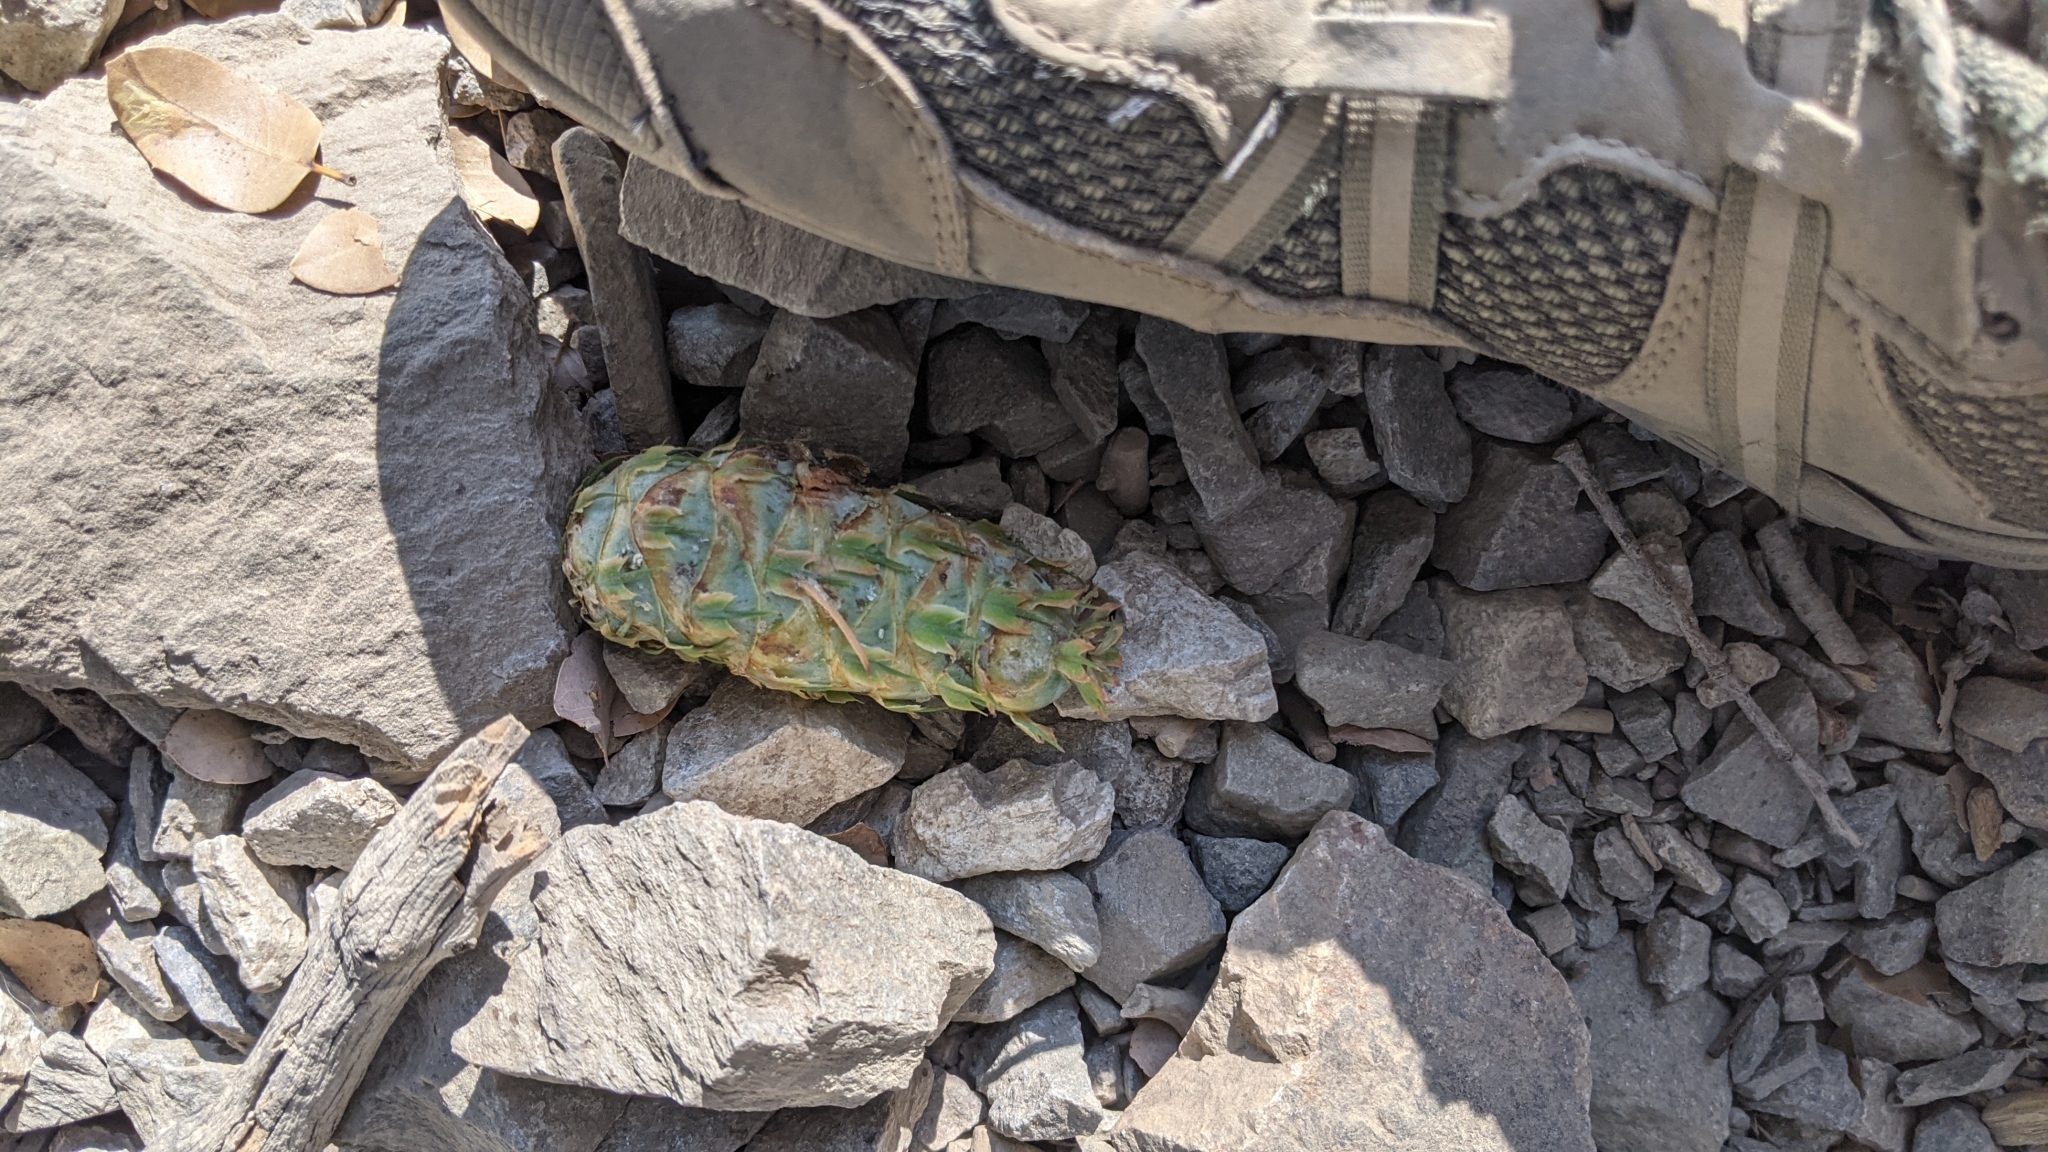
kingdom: Plantae
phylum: Tracheophyta
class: Pinopsida
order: Pinales
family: Pinaceae
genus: Pseudotsuga
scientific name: Pseudotsuga macrocarpa
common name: Big-cone douglas-fir
